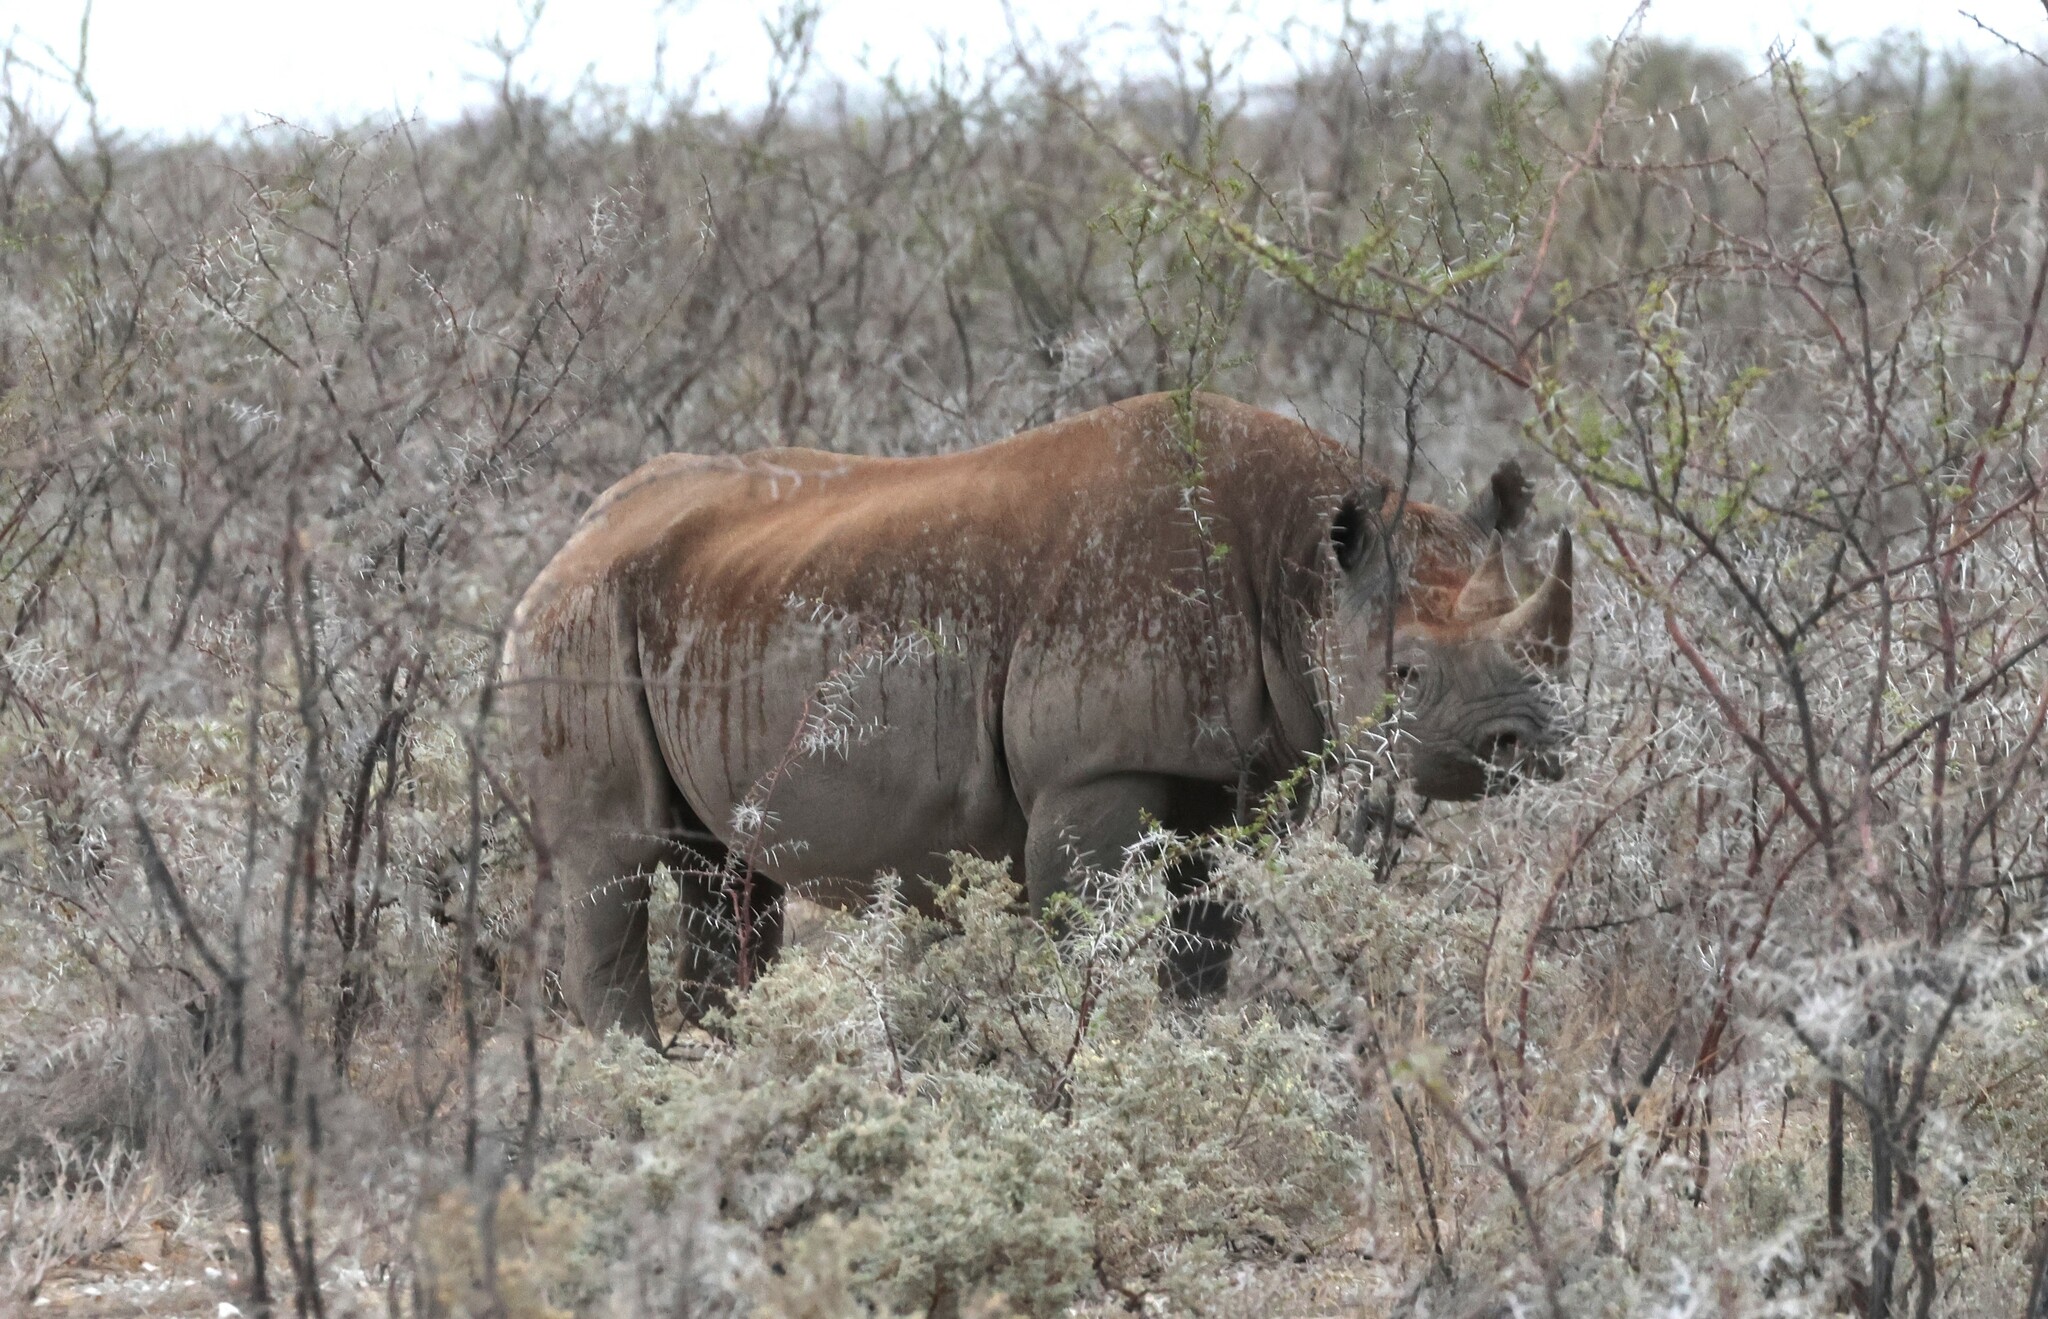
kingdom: Animalia
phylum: Chordata
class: Mammalia
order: Perissodactyla
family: Rhinocerotidae
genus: Diceros
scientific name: Diceros bicornis
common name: Black rhinoceros
